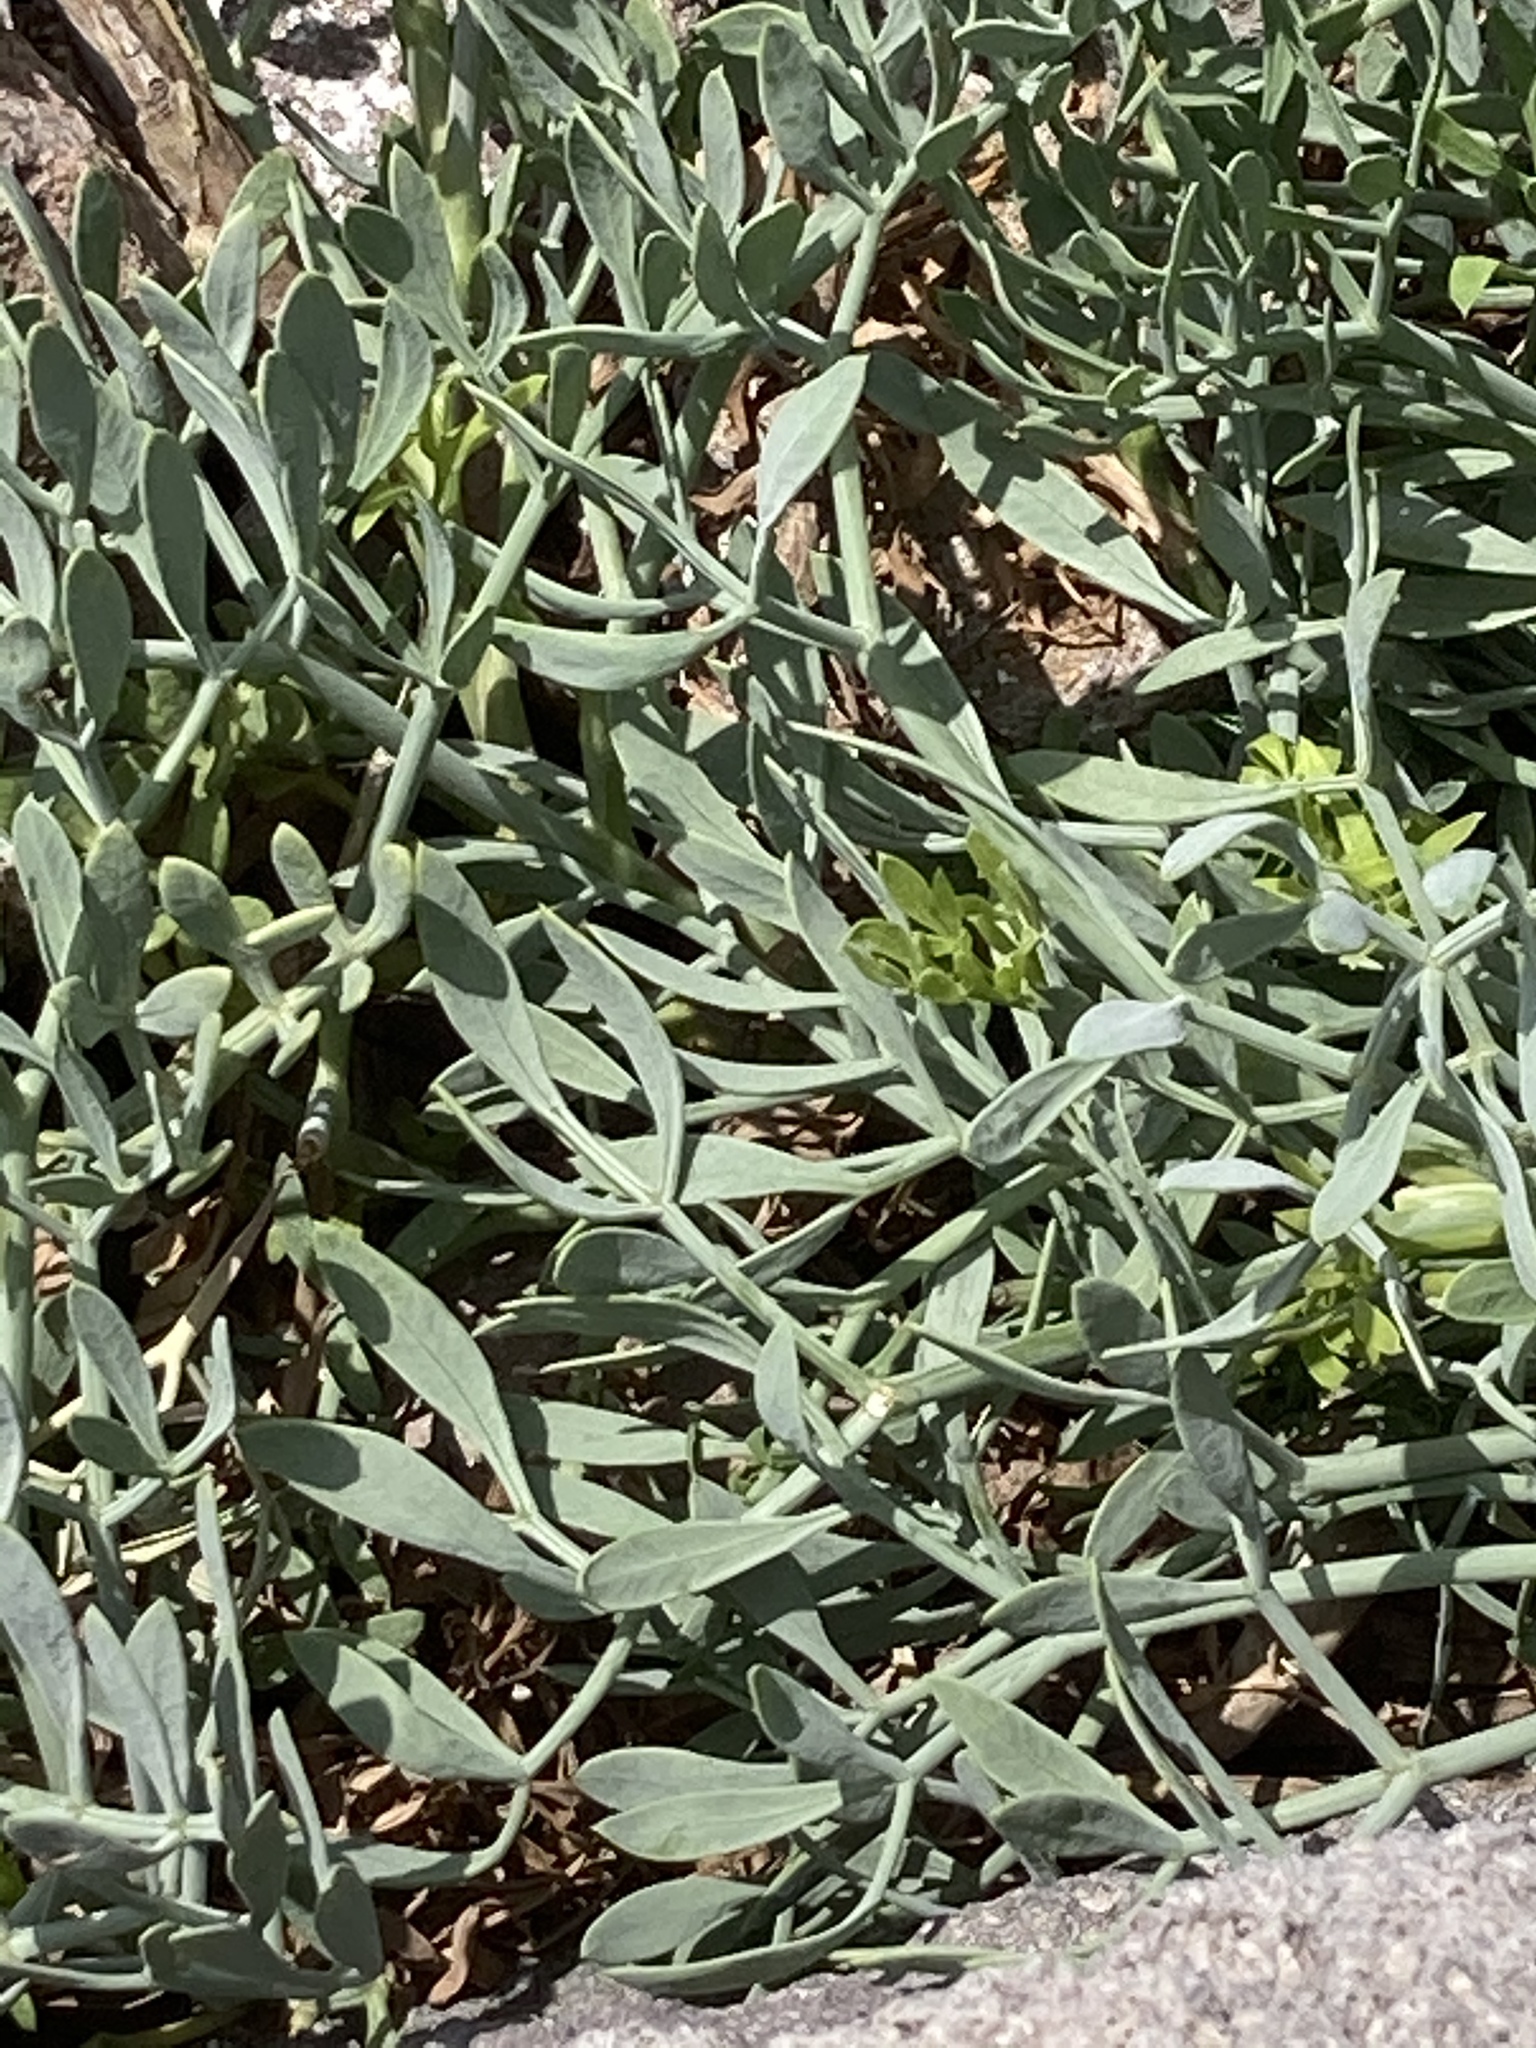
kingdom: Plantae
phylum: Tracheophyta
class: Magnoliopsida
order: Apiales
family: Apiaceae
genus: Crithmum
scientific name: Crithmum maritimum
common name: Rock samphire
